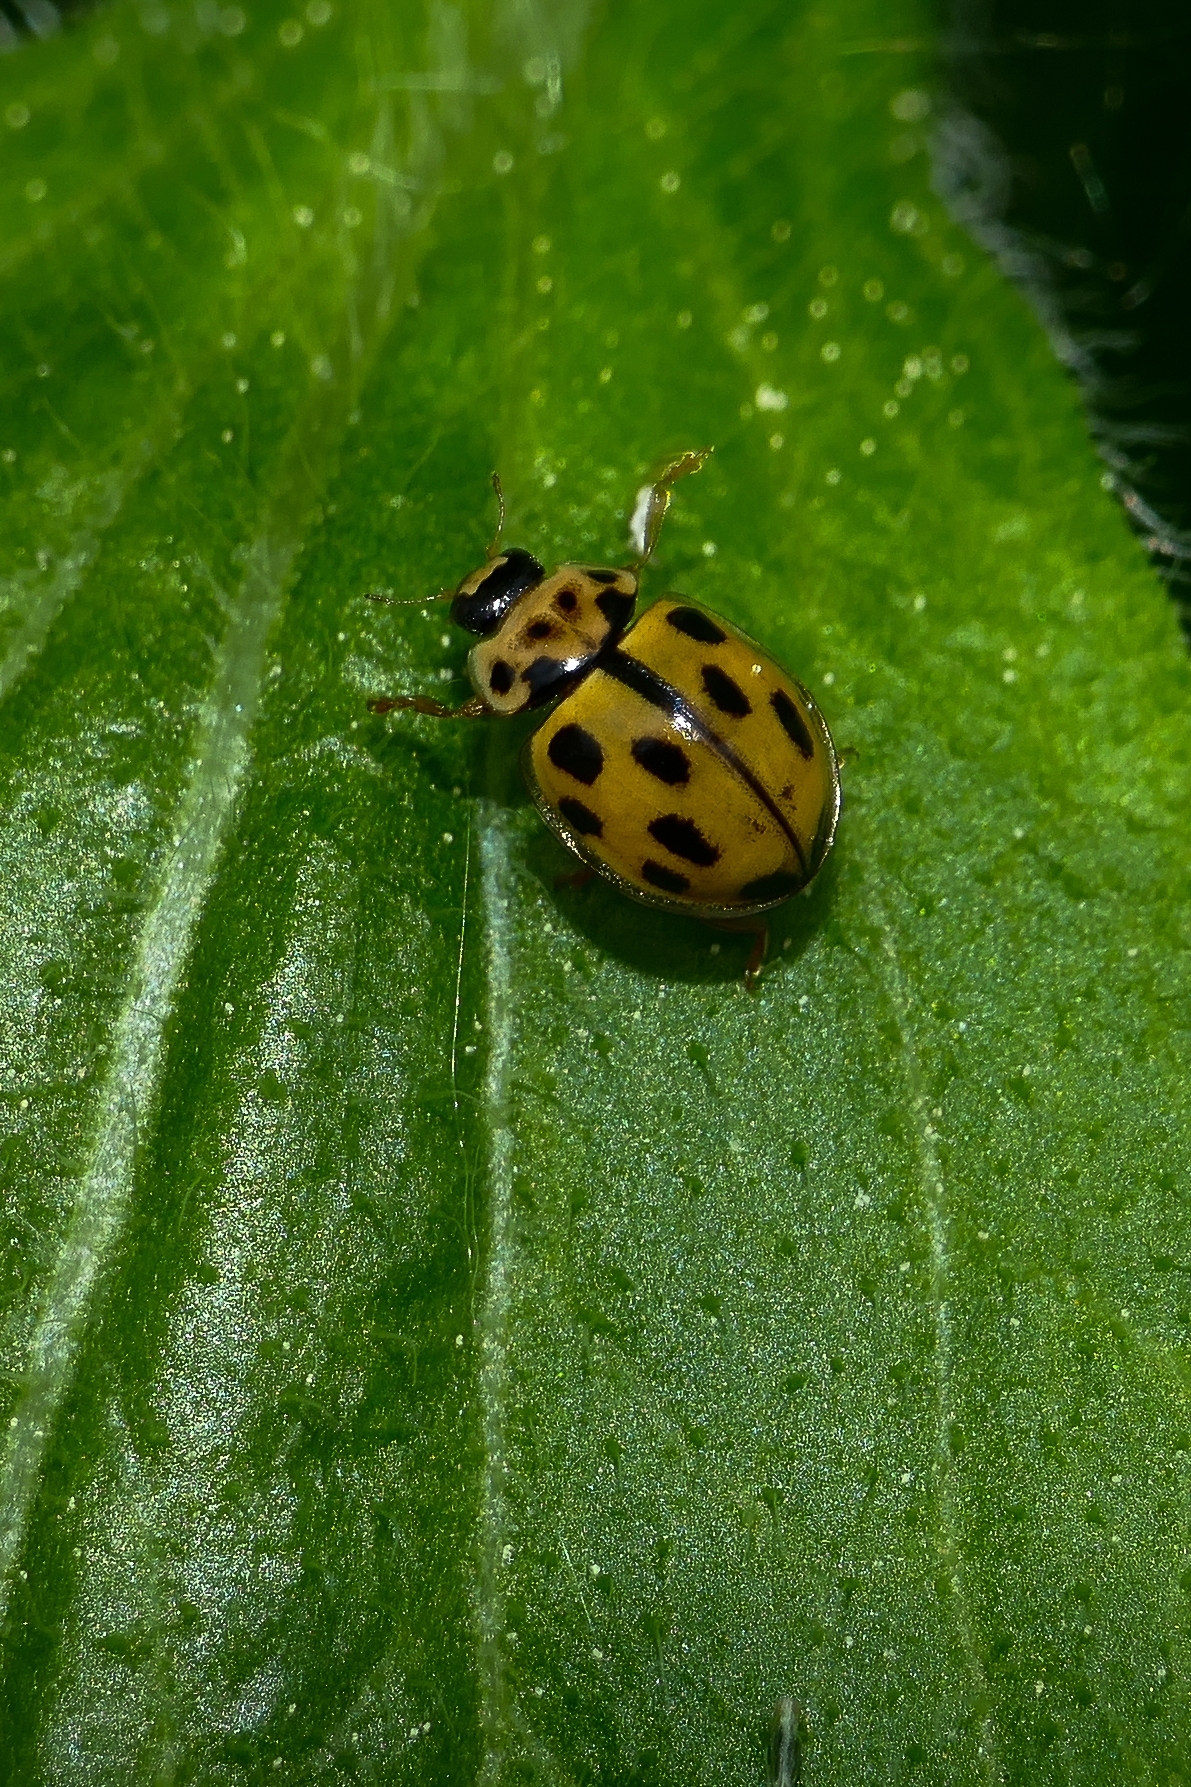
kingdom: Animalia
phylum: Arthropoda
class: Insecta
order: Coleoptera
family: Coccinellidae
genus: Propylaea
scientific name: Propylaea quatuordecimpunctata
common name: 14-spotted ladybird beetle
